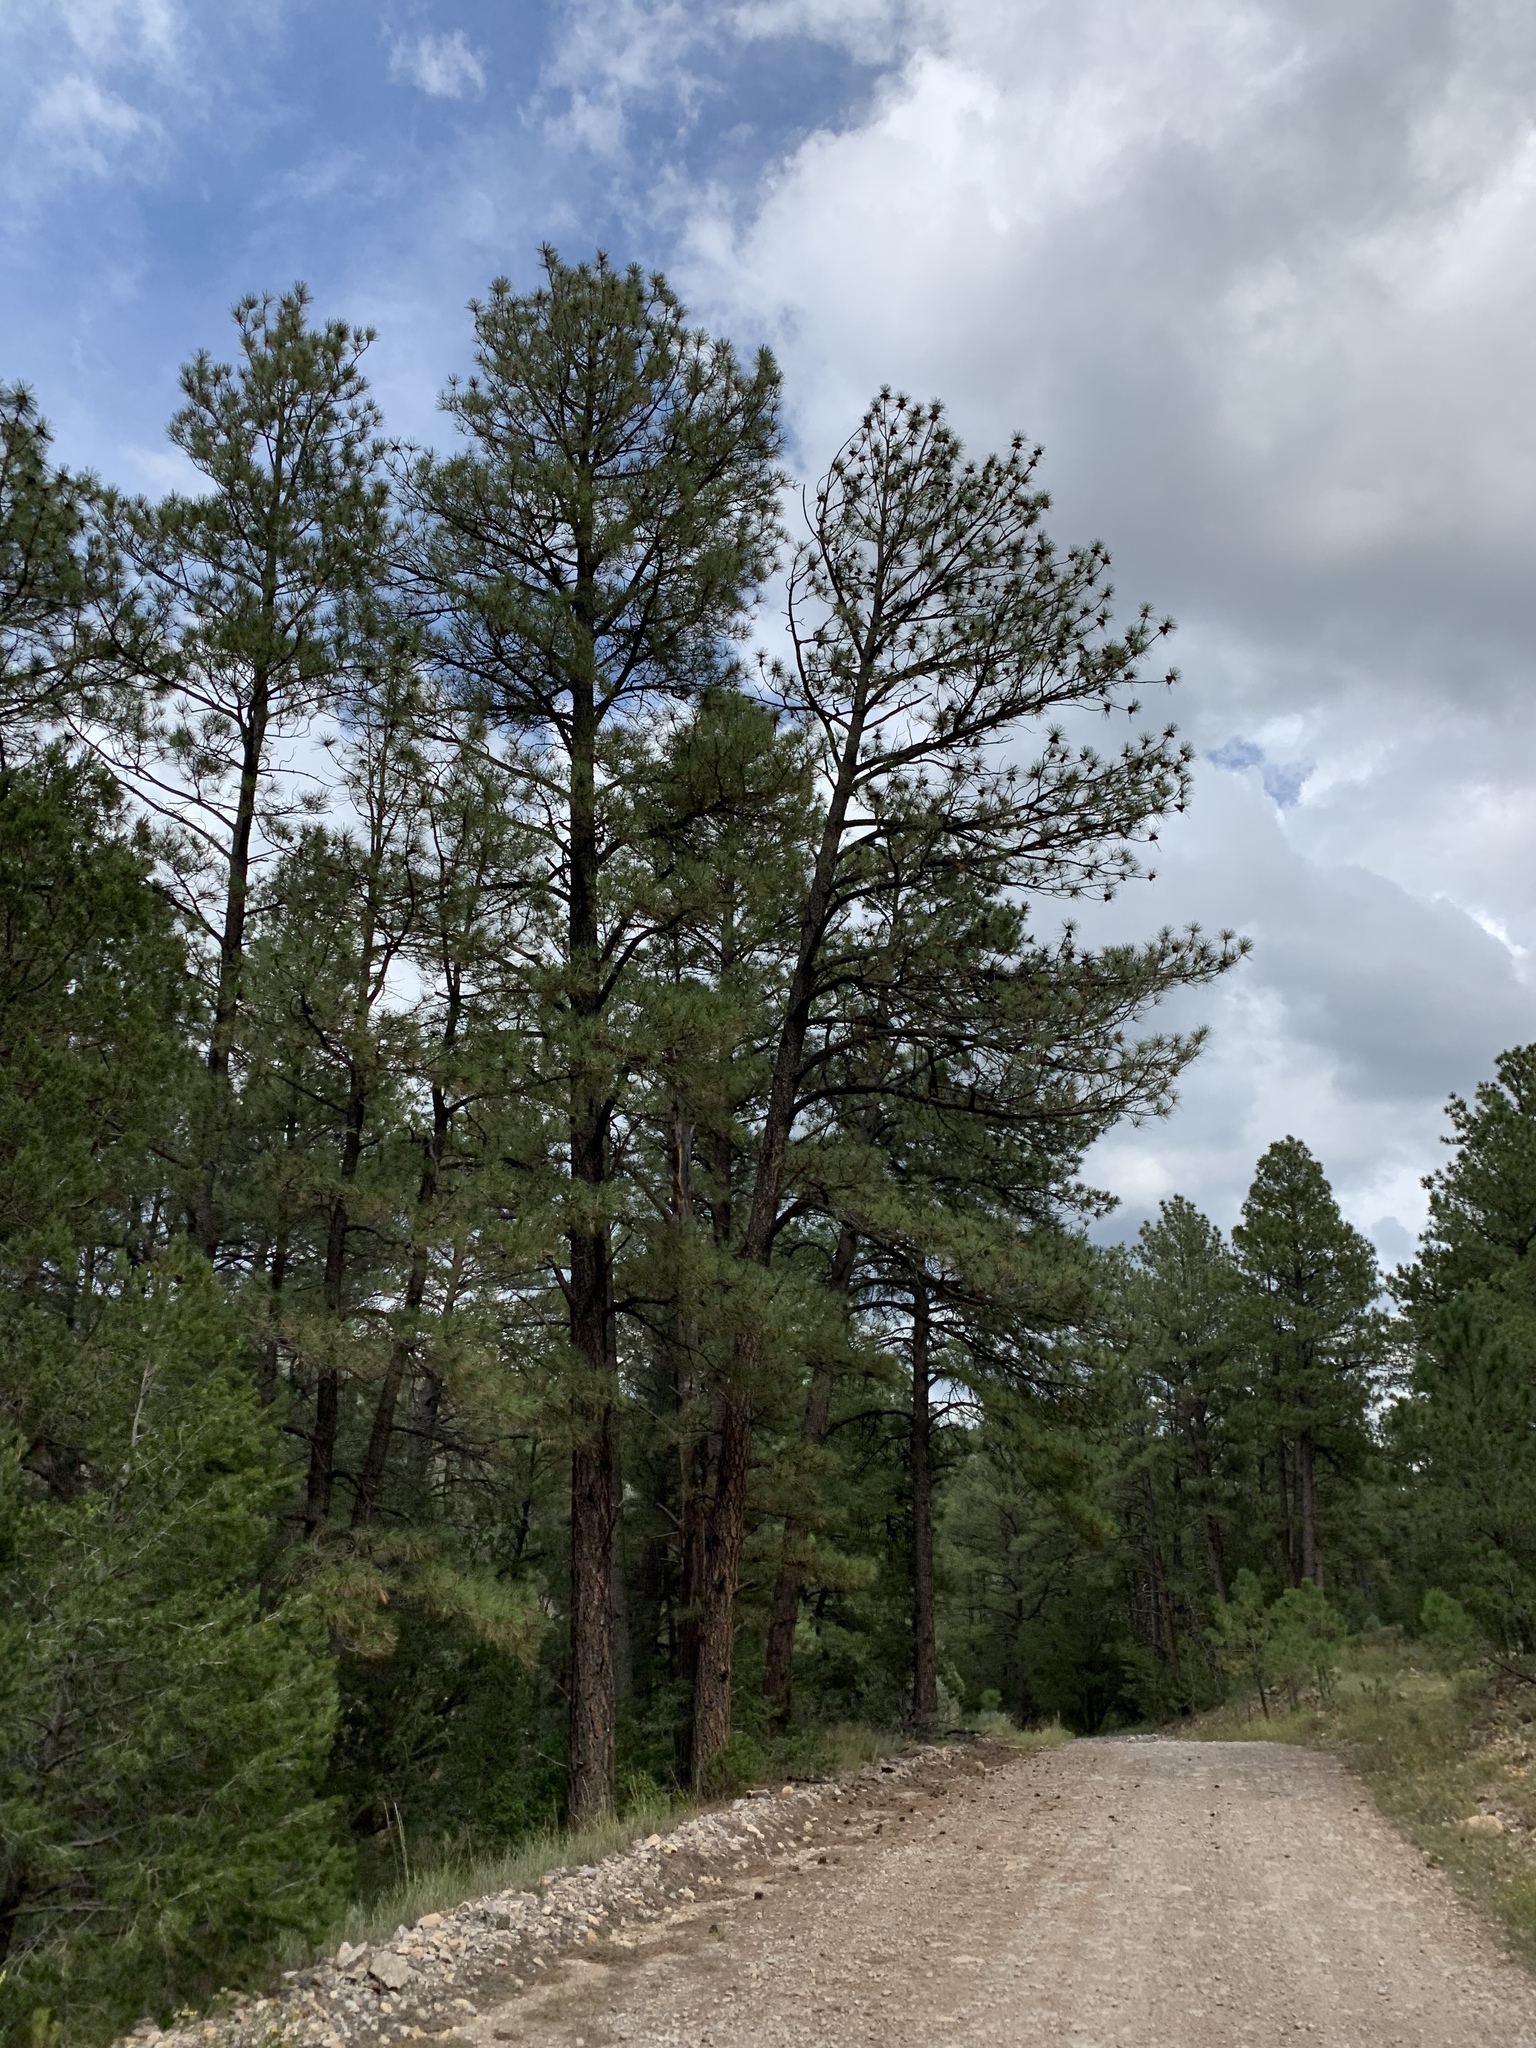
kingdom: Plantae
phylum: Tracheophyta
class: Pinopsida
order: Pinales
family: Pinaceae
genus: Pinus
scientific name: Pinus ponderosa
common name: Western yellow-pine
